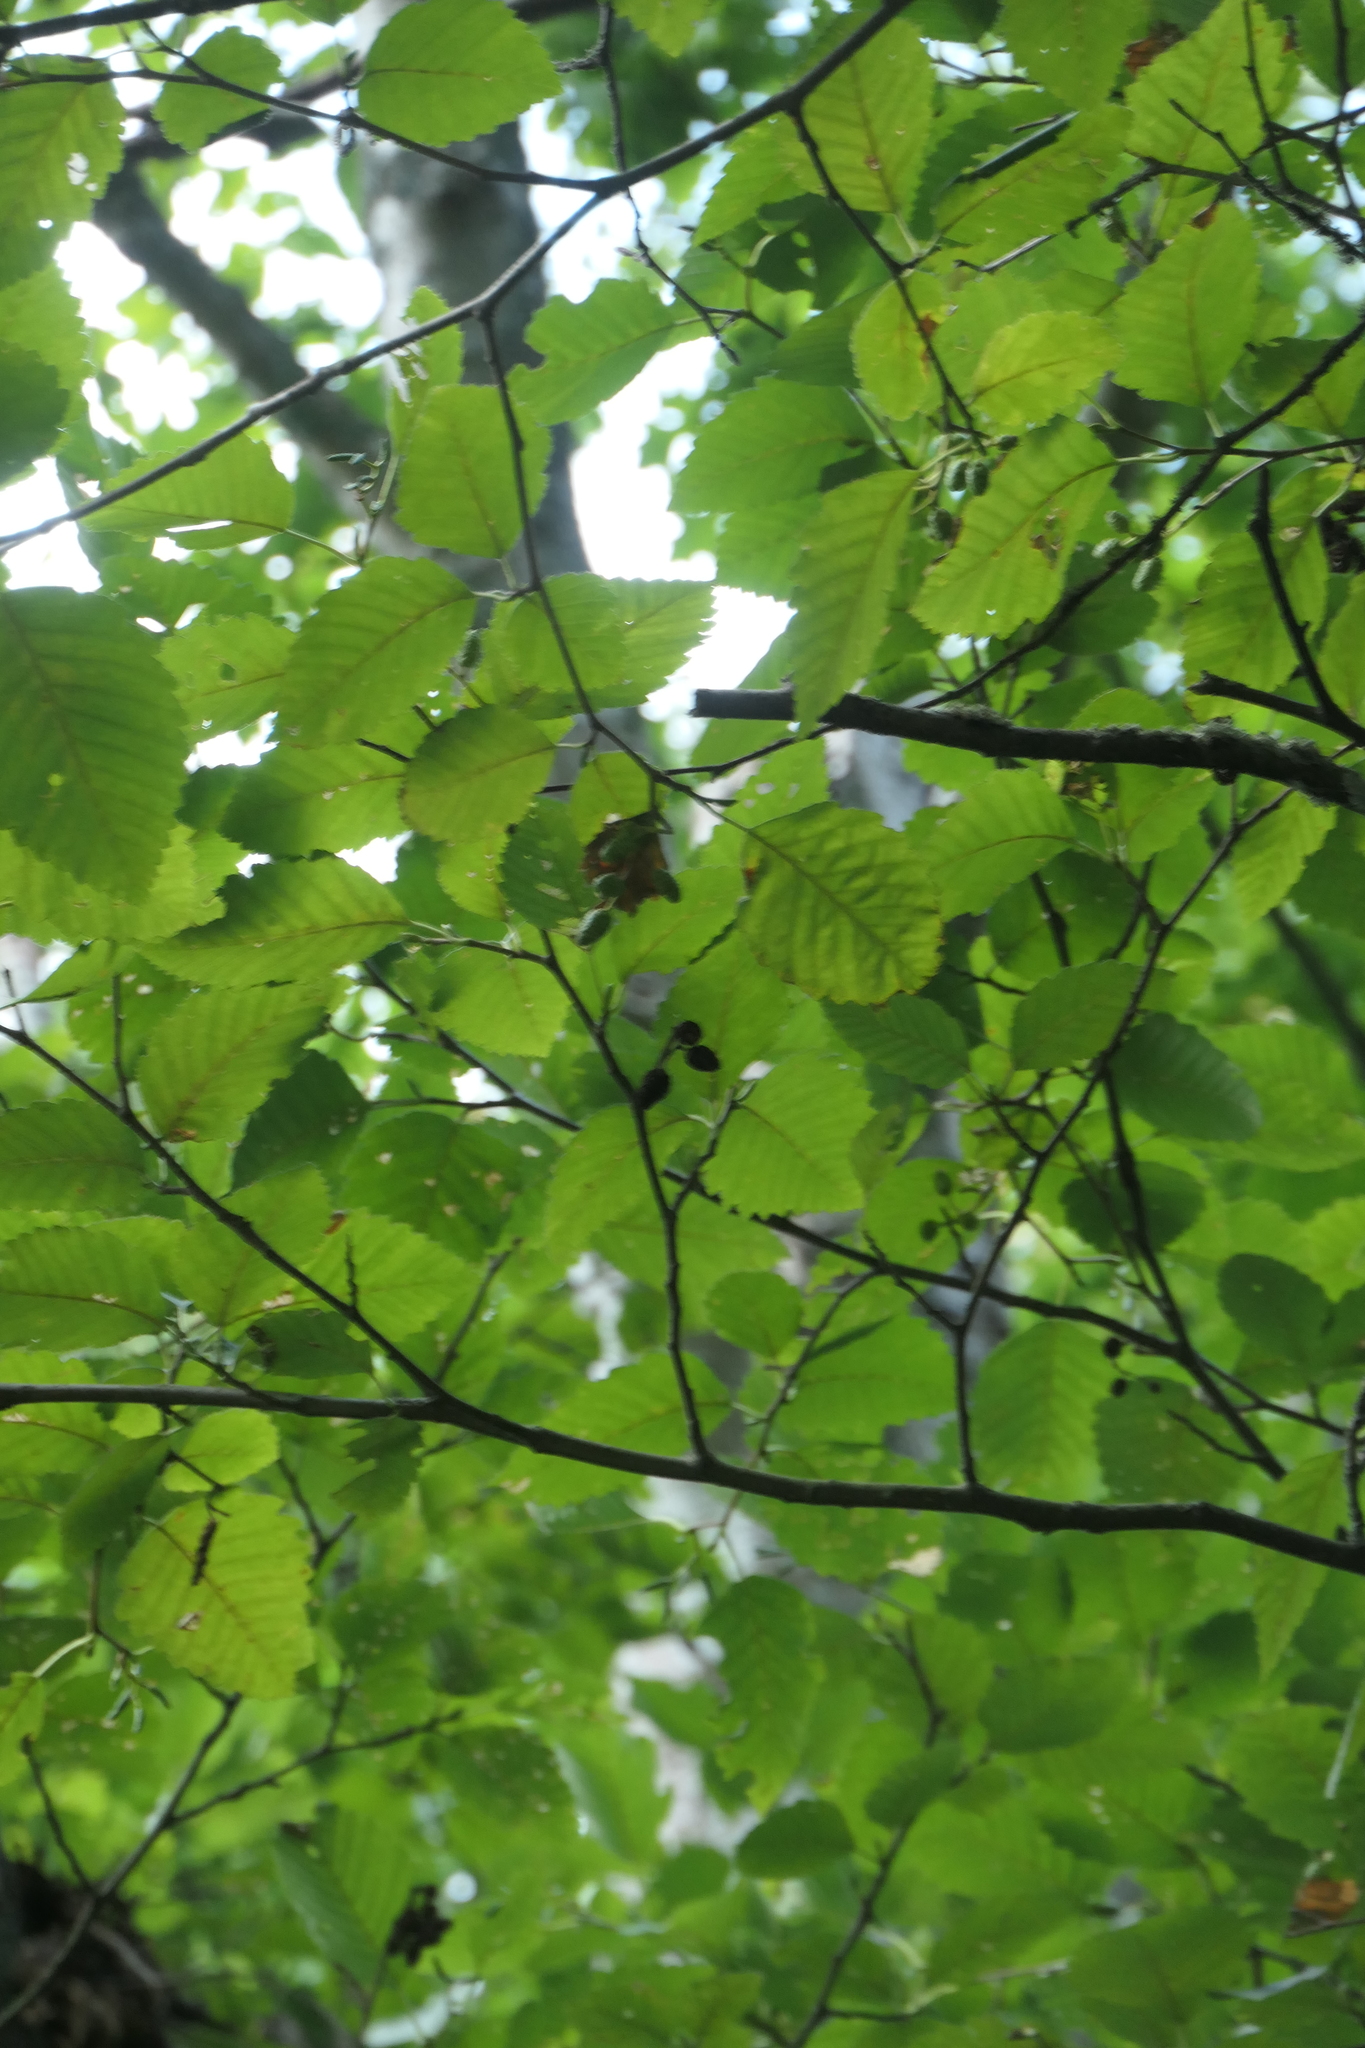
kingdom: Plantae
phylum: Tracheophyta
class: Magnoliopsida
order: Fagales
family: Betulaceae
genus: Alnus
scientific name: Alnus rubra
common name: Red alder
